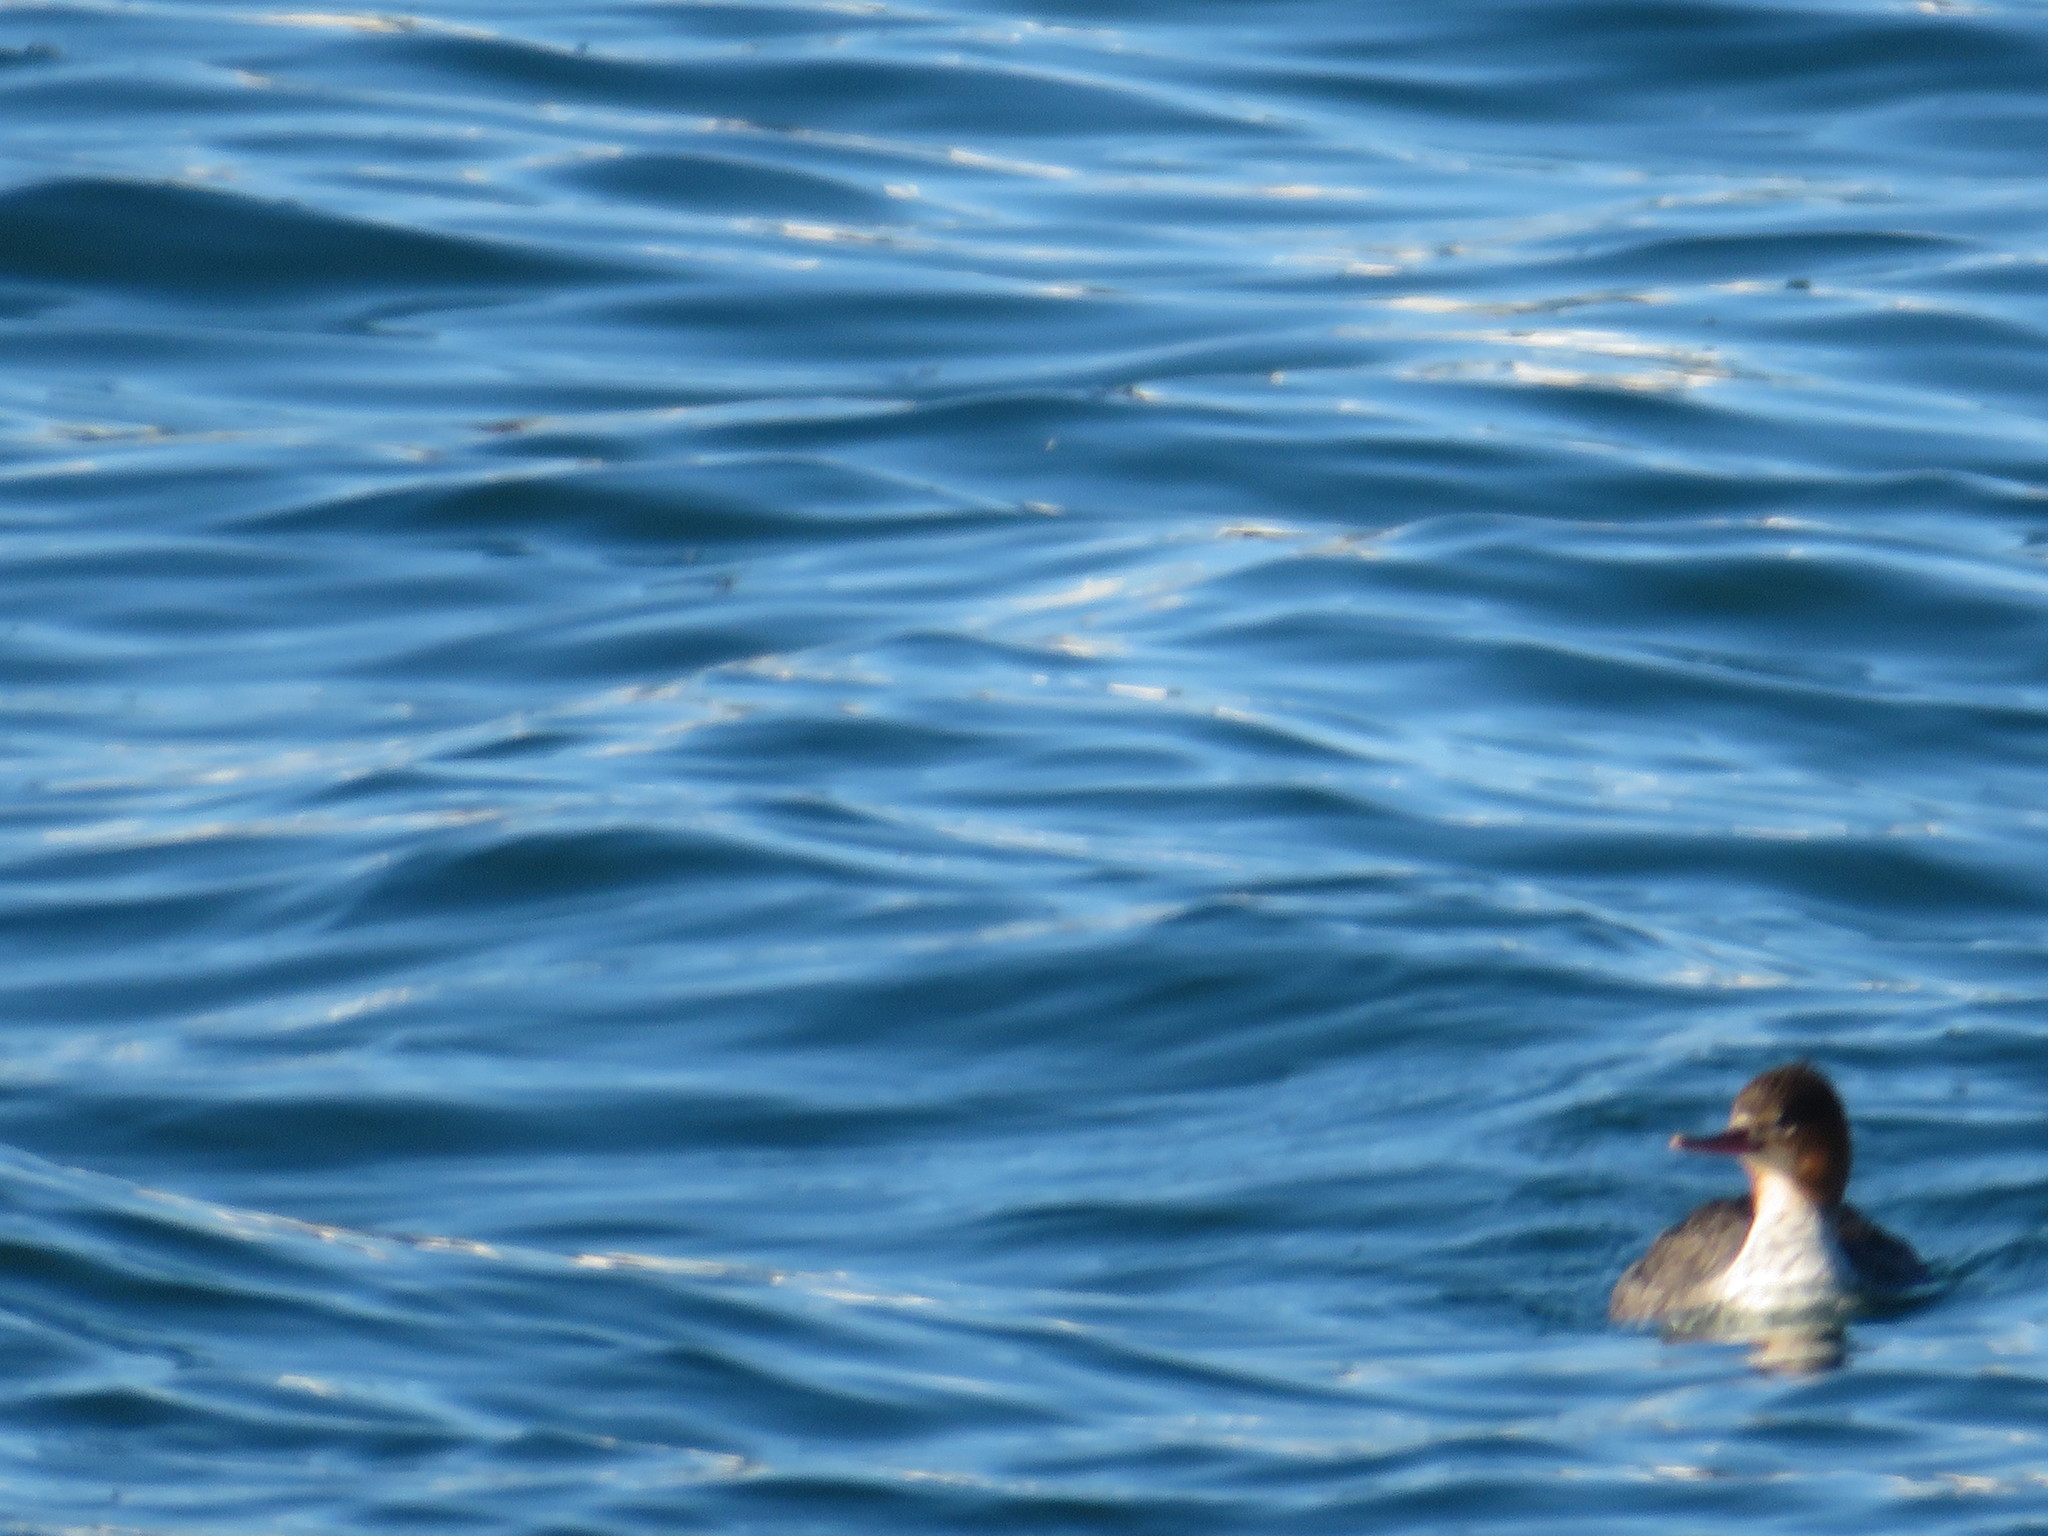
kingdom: Animalia
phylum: Chordata
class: Aves
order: Anseriformes
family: Anatidae
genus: Mergus
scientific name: Mergus serrator
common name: Red-breasted merganser
